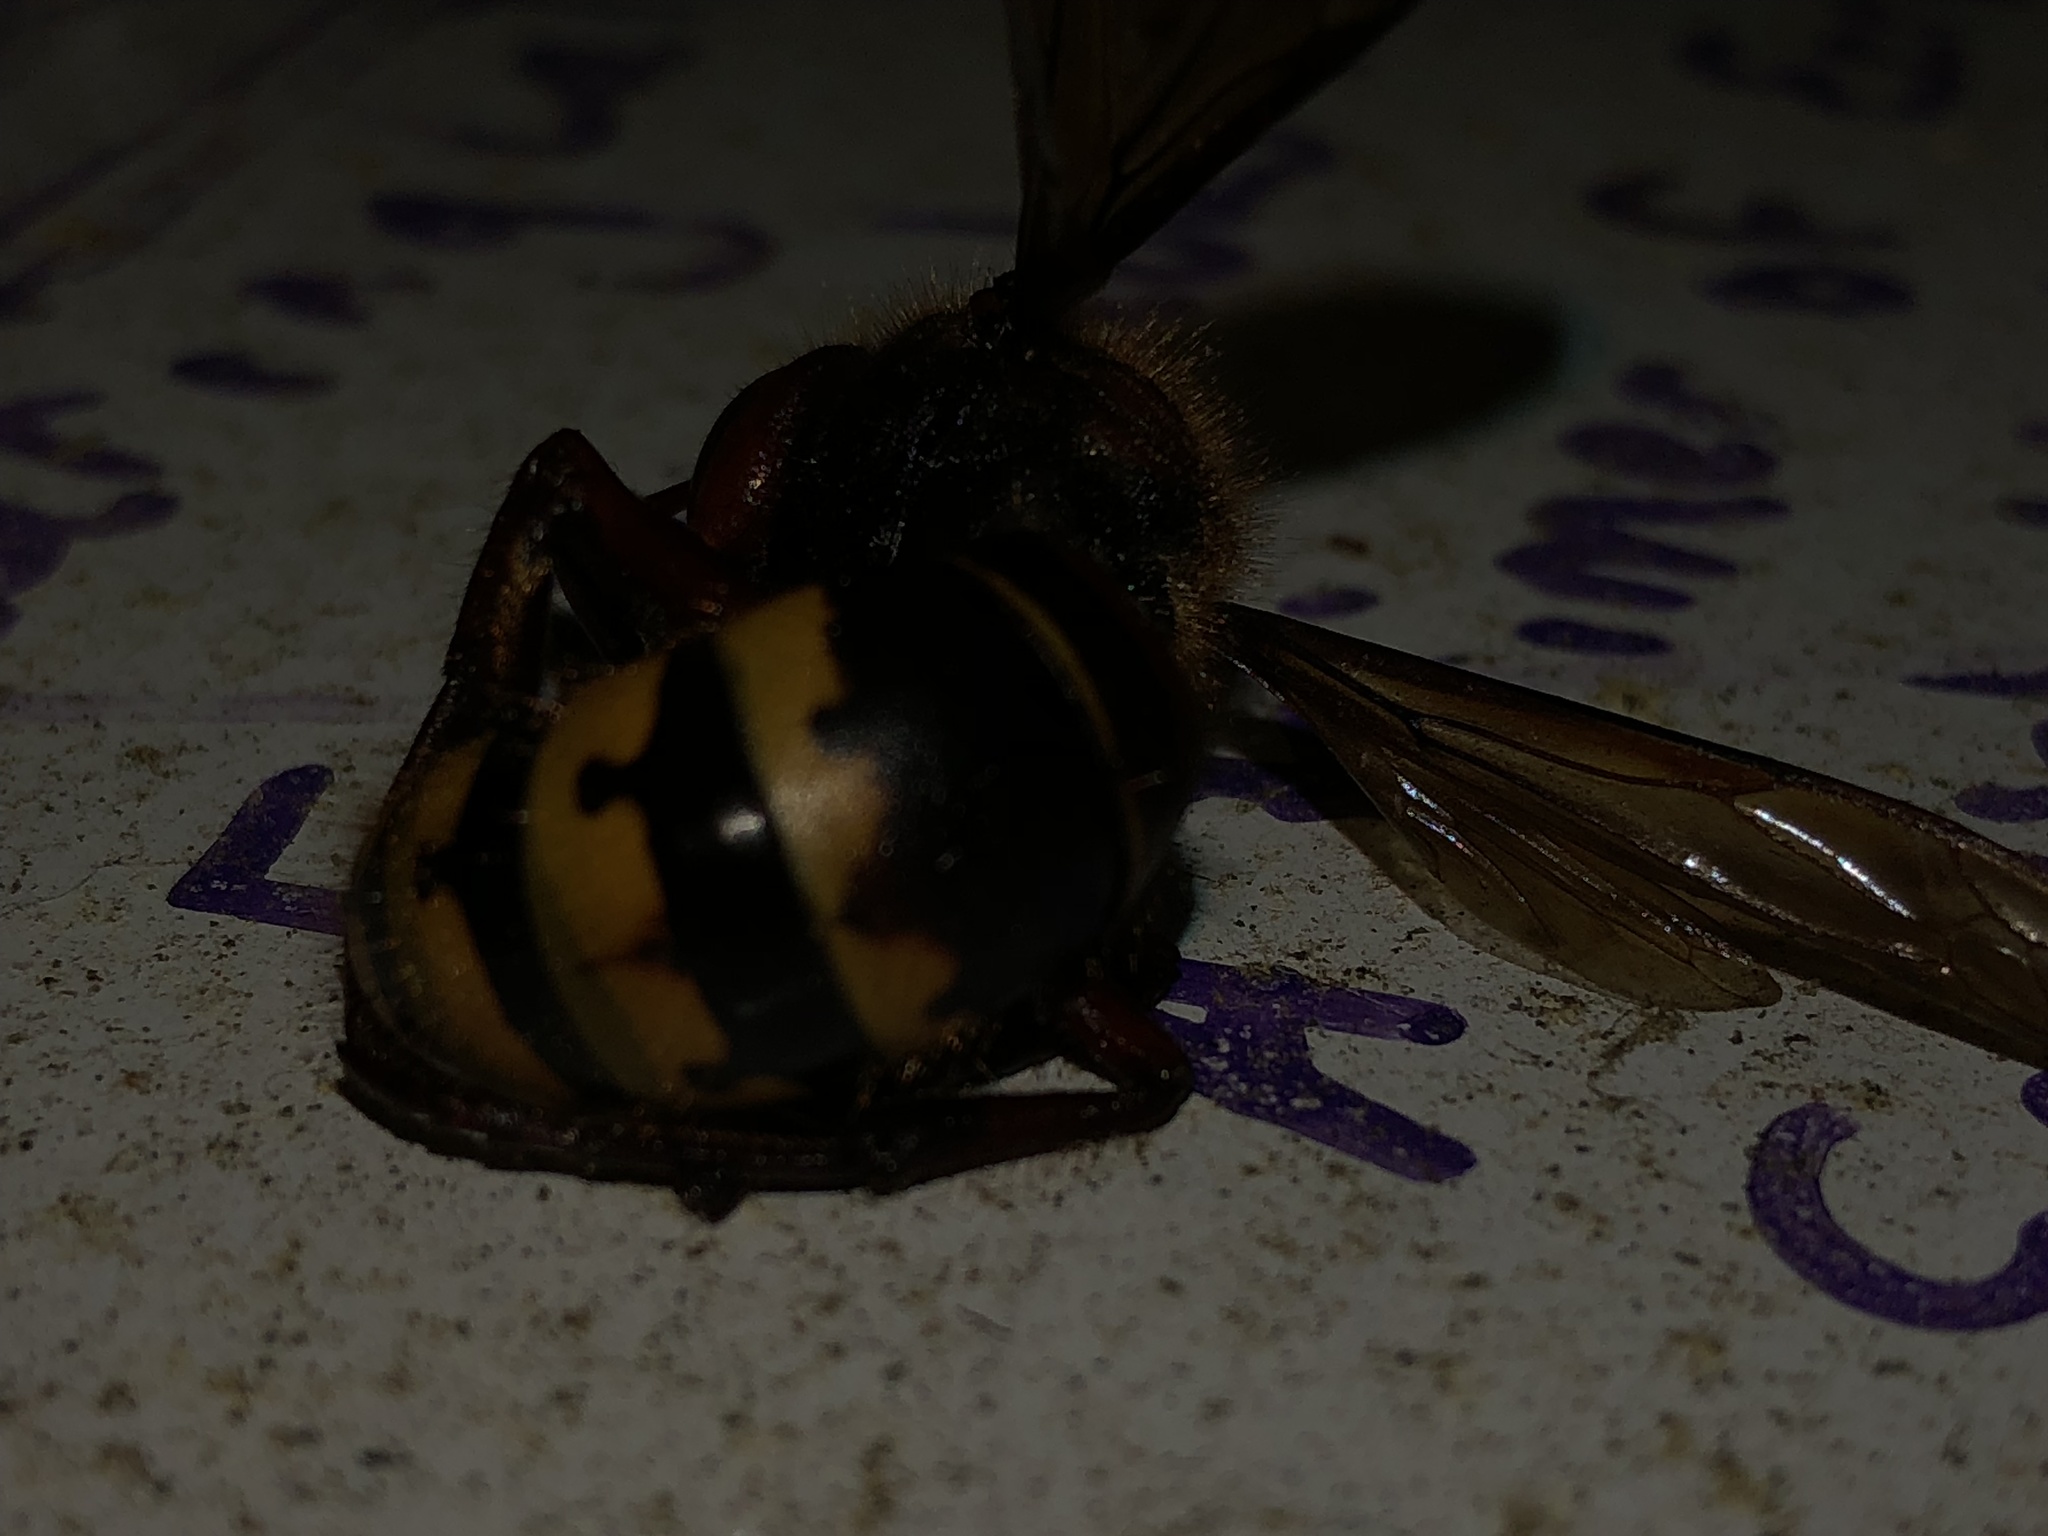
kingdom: Animalia
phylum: Arthropoda
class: Insecta
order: Hymenoptera
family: Vespidae
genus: Vespa
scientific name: Vespa crabro
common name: Hornet
